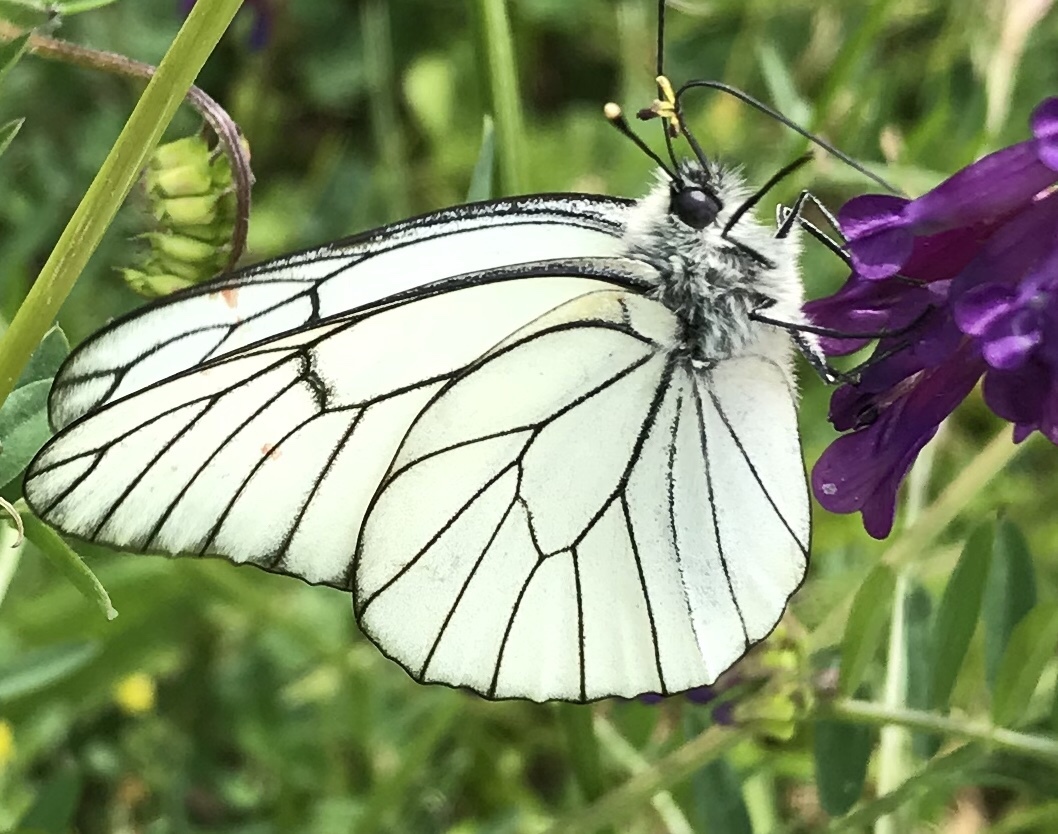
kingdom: Animalia
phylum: Arthropoda
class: Insecta
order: Lepidoptera
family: Pieridae
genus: Aporia
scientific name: Aporia crataegi
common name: Black-veined white
